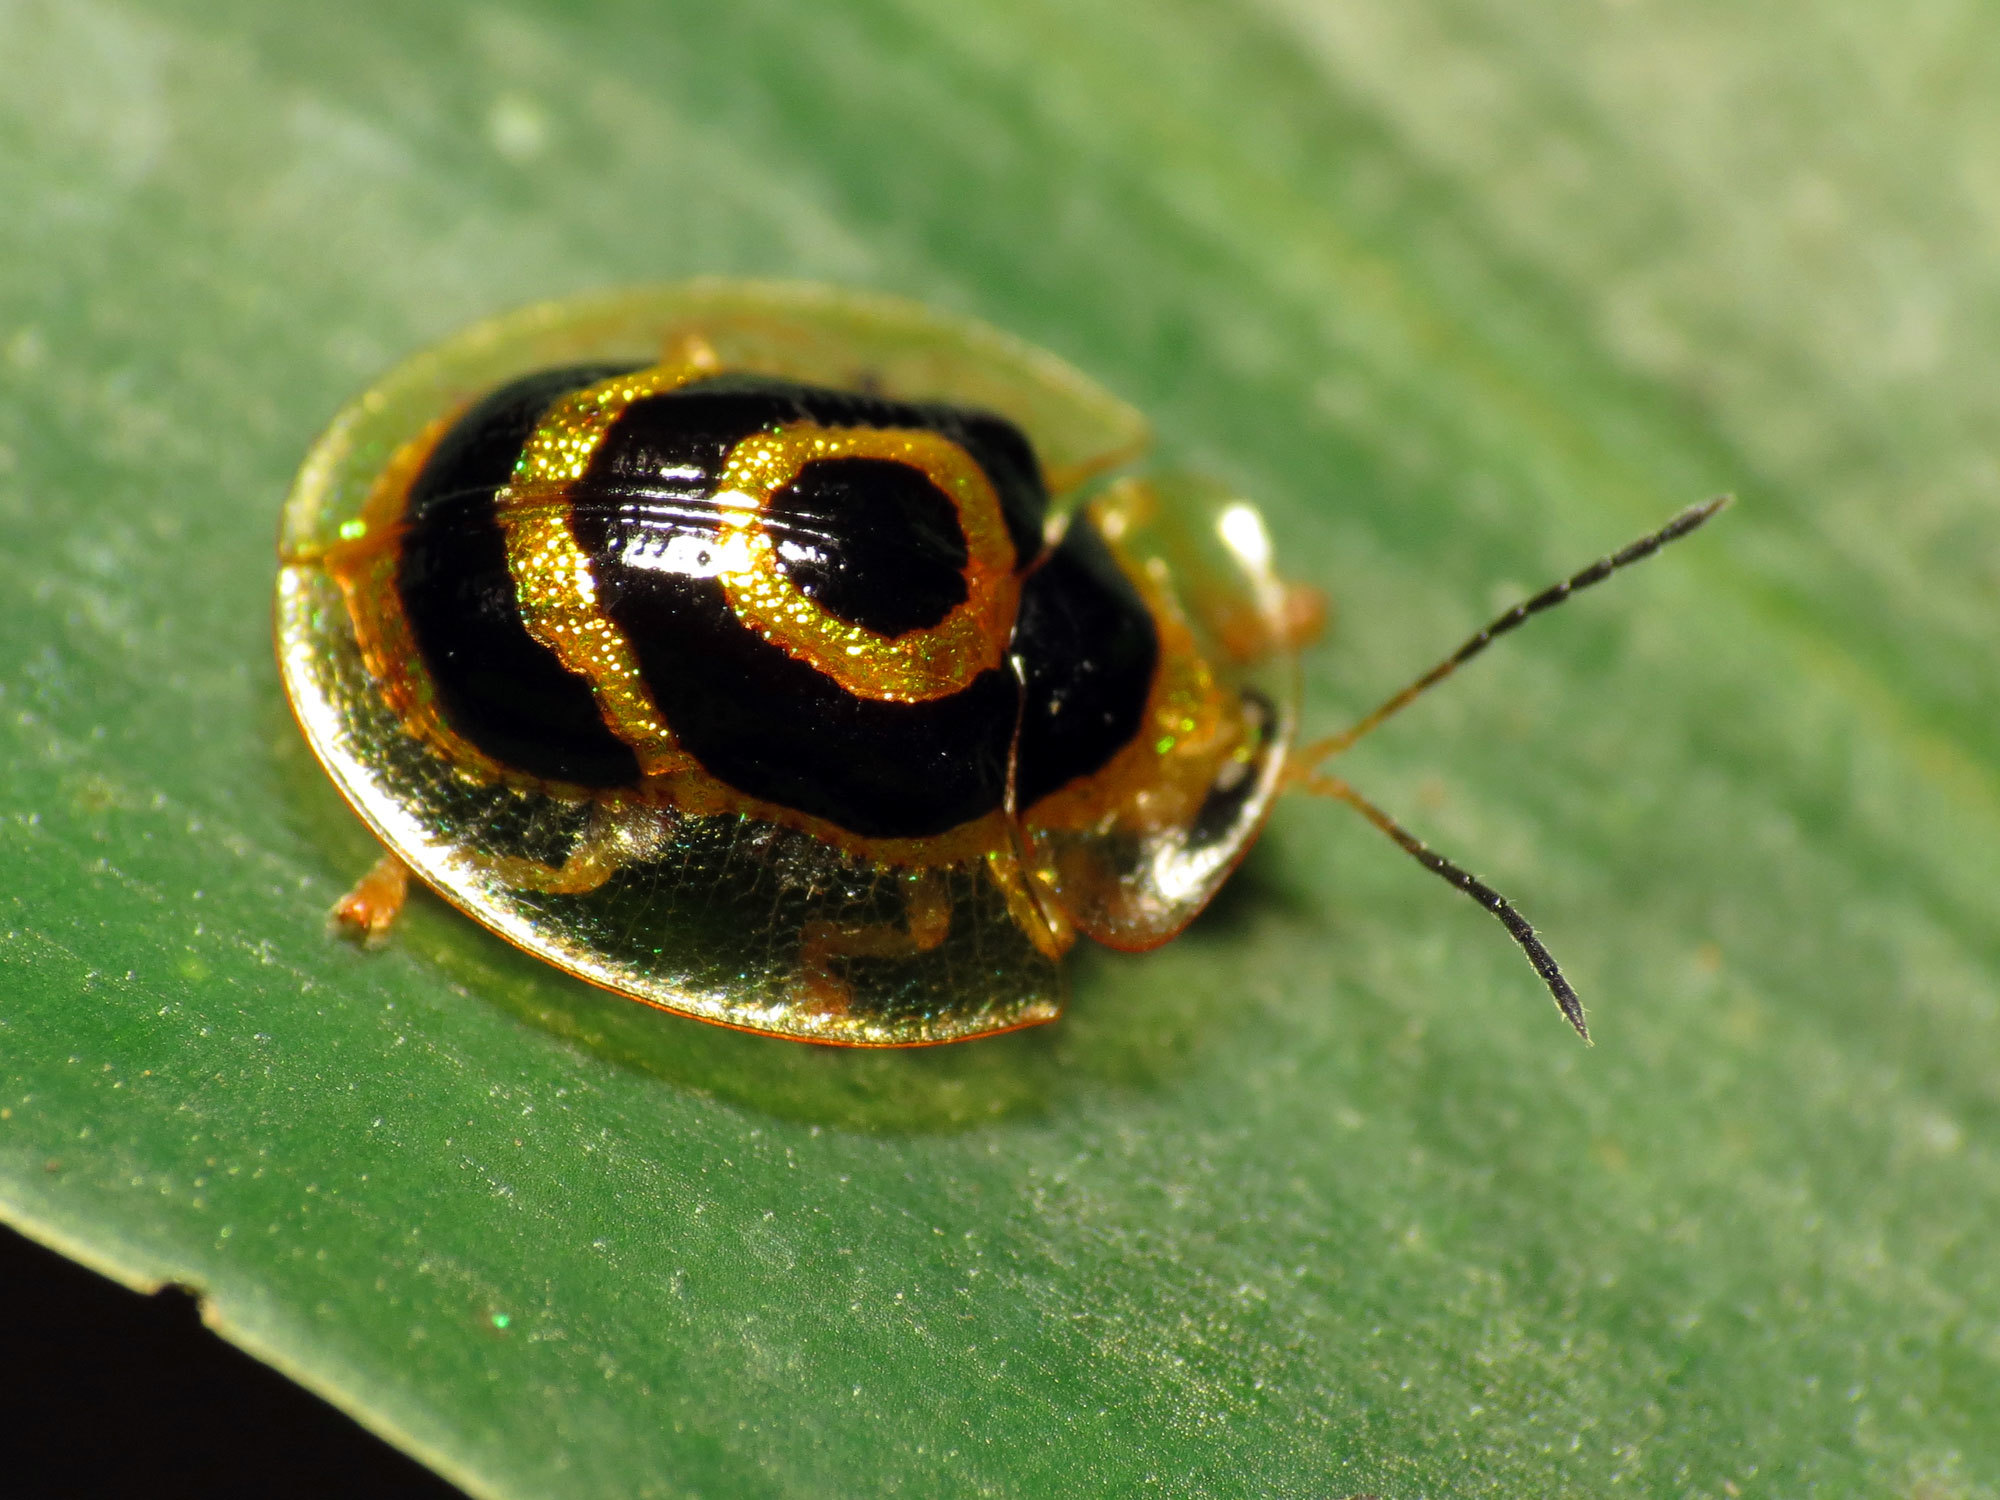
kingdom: Animalia
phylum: Arthropoda
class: Insecta
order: Coleoptera
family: Chrysomelidae
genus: Ischnocodia
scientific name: Ischnocodia annulus
